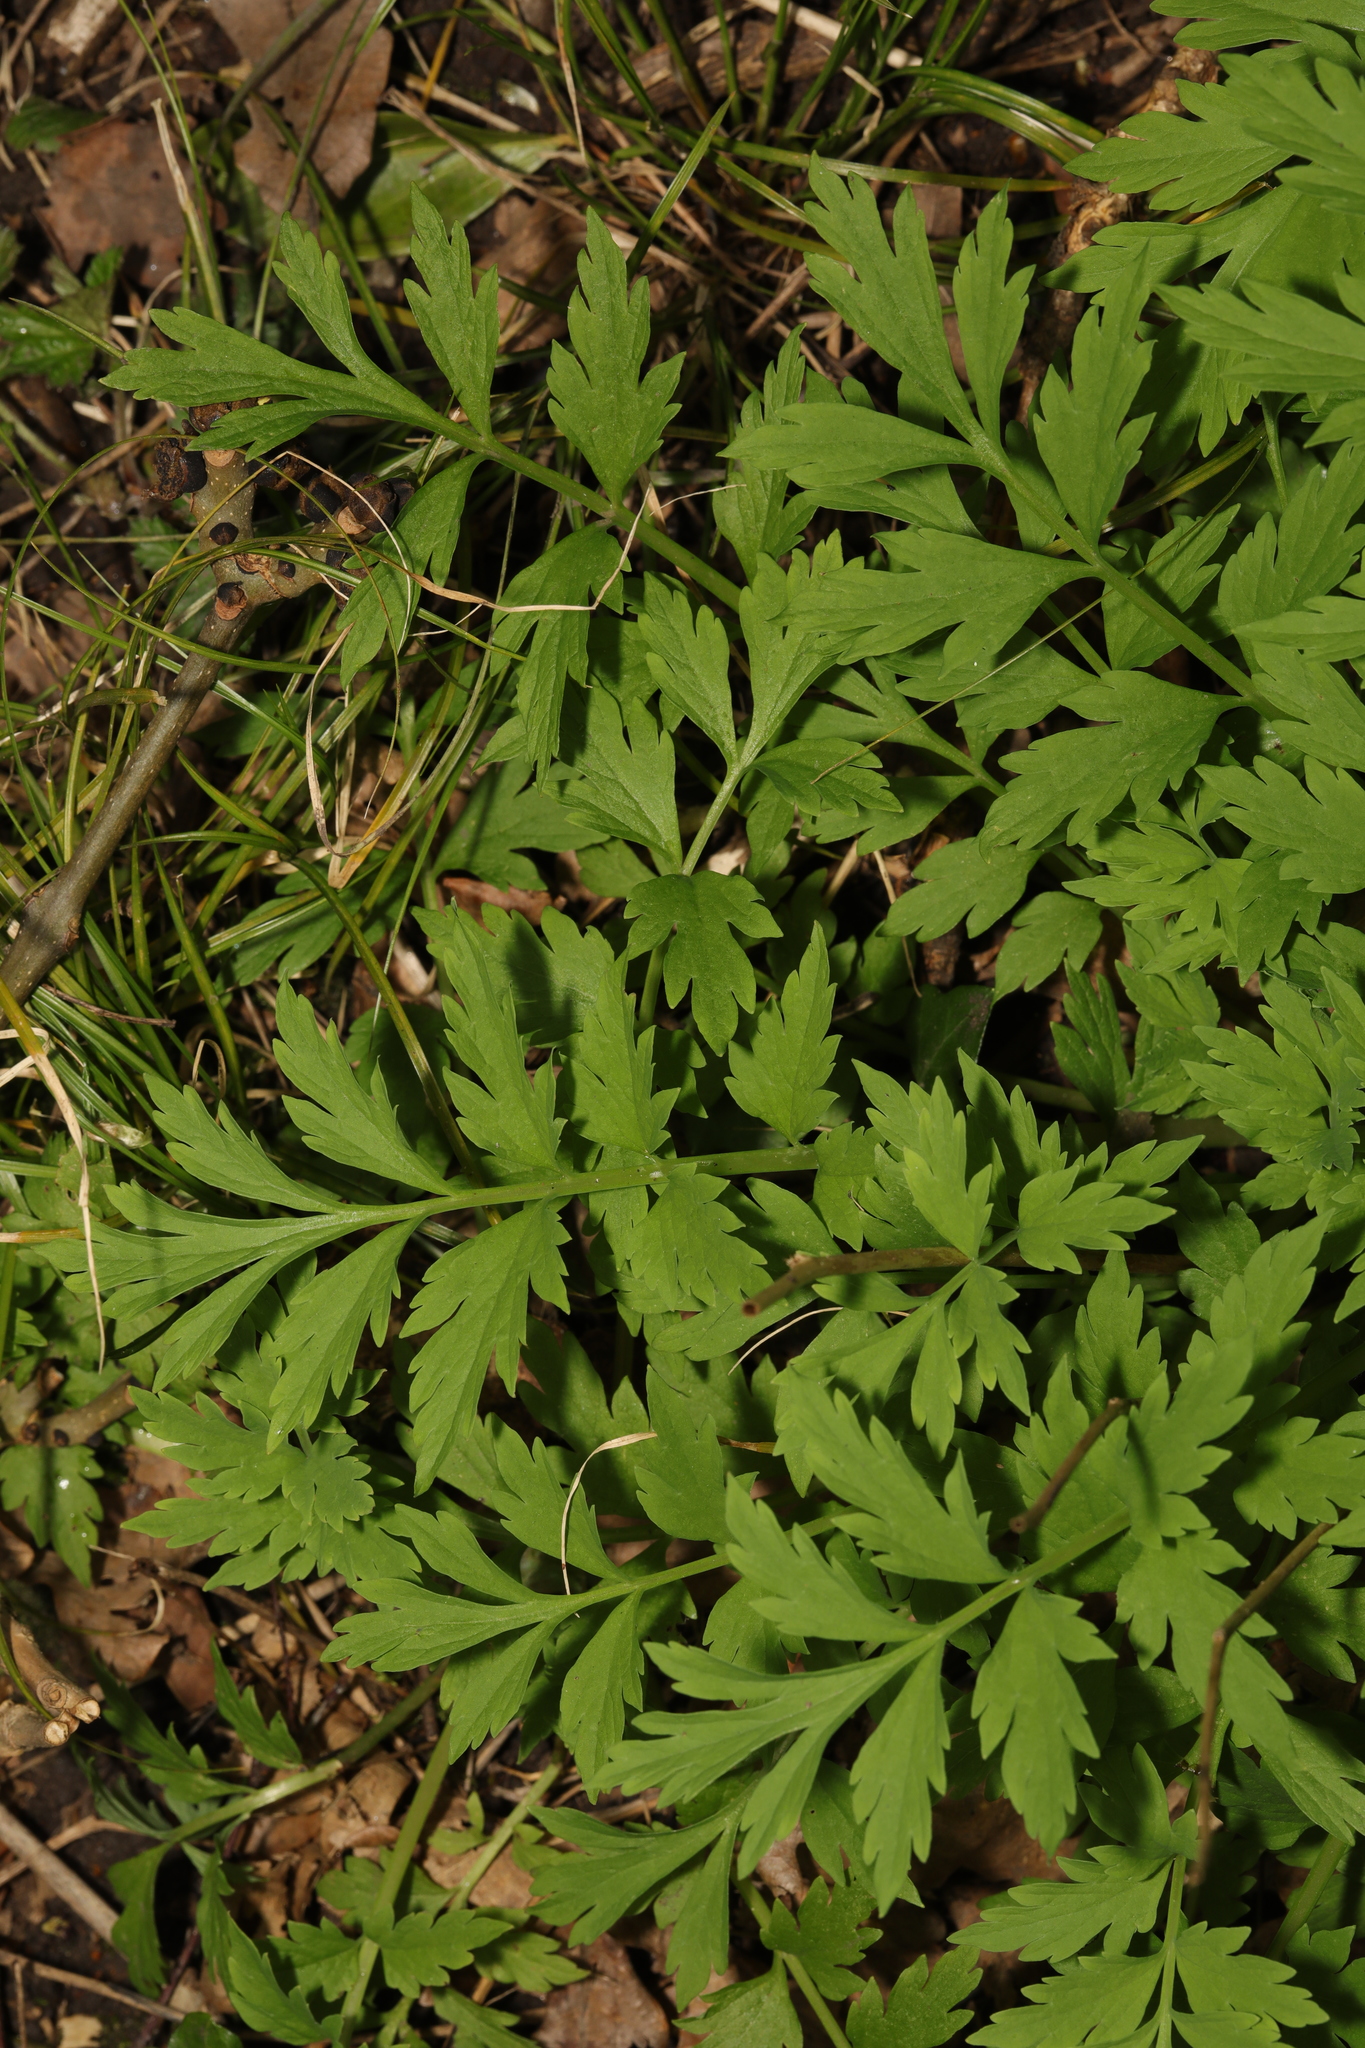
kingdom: Plantae
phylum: Tracheophyta
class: Magnoliopsida
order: Ranunculales
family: Papaveraceae
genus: Papaver
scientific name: Papaver cambricum
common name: Poppy
